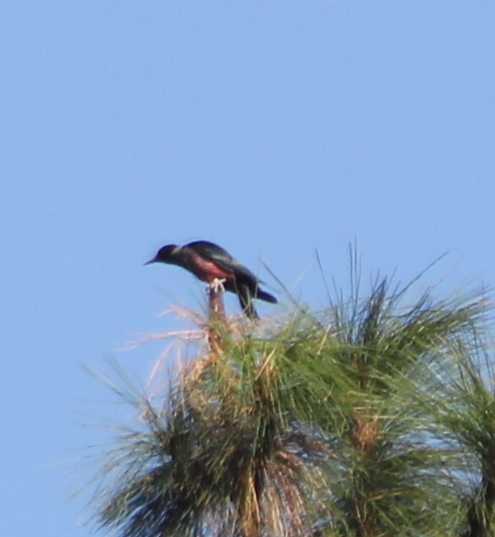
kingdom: Animalia
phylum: Chordata
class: Aves
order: Piciformes
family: Picidae
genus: Melanerpes
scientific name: Melanerpes lewis
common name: Lewis's woodpecker
